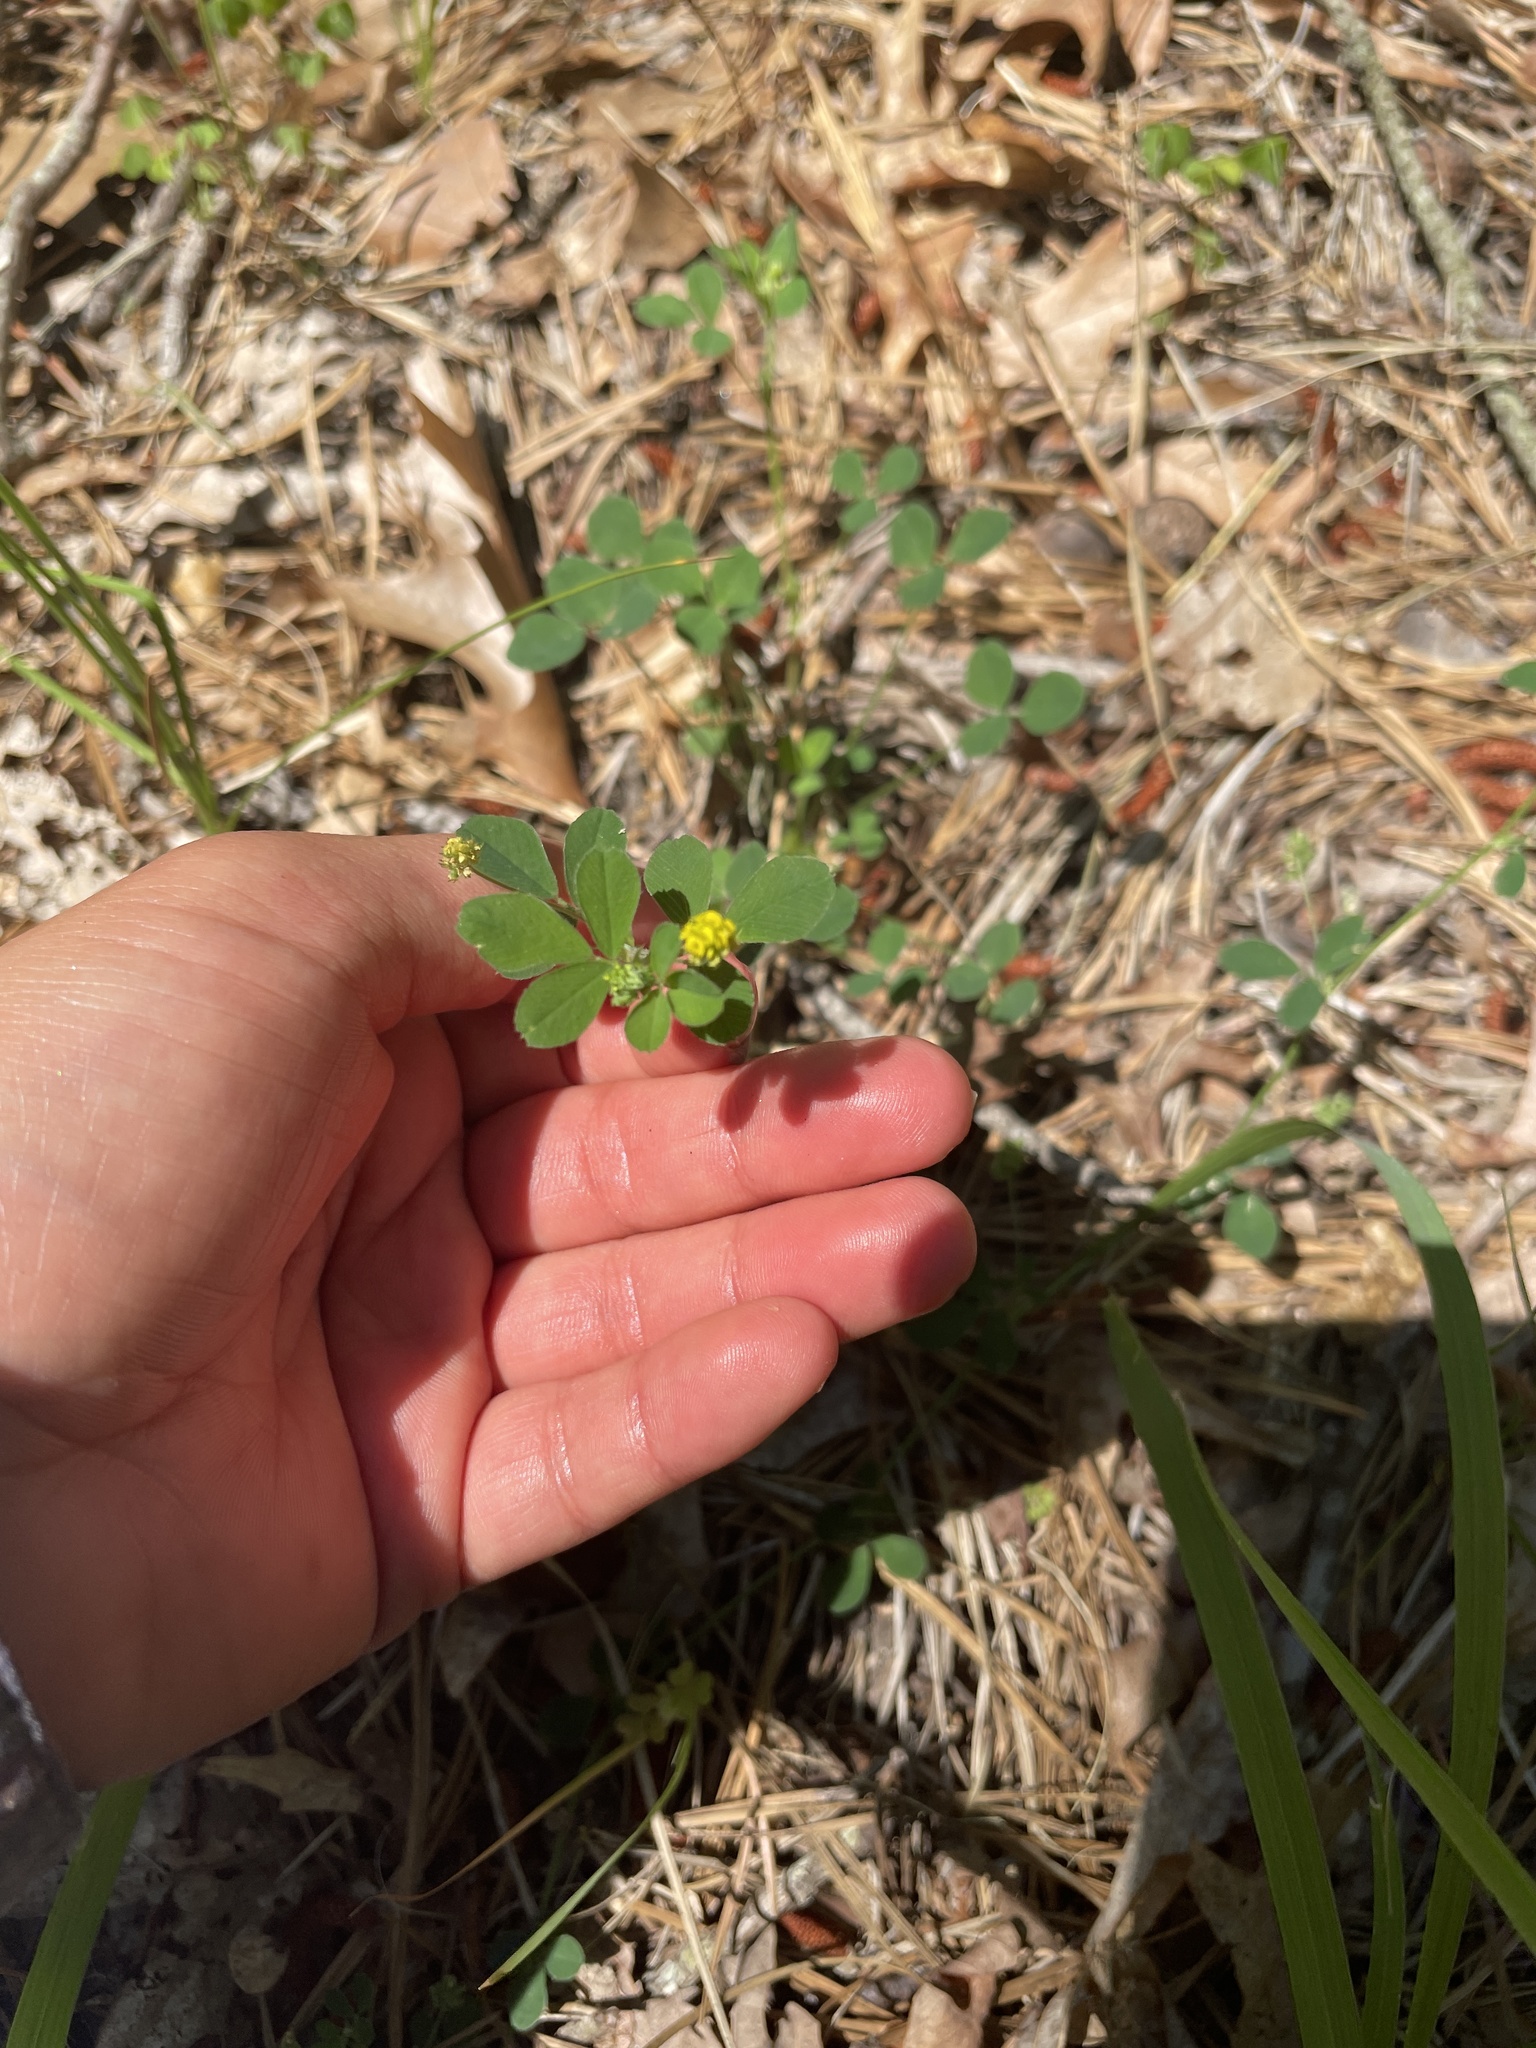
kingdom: Plantae
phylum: Tracheophyta
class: Magnoliopsida
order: Fabales
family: Fabaceae
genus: Medicago
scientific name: Medicago lupulina
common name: Black medick
